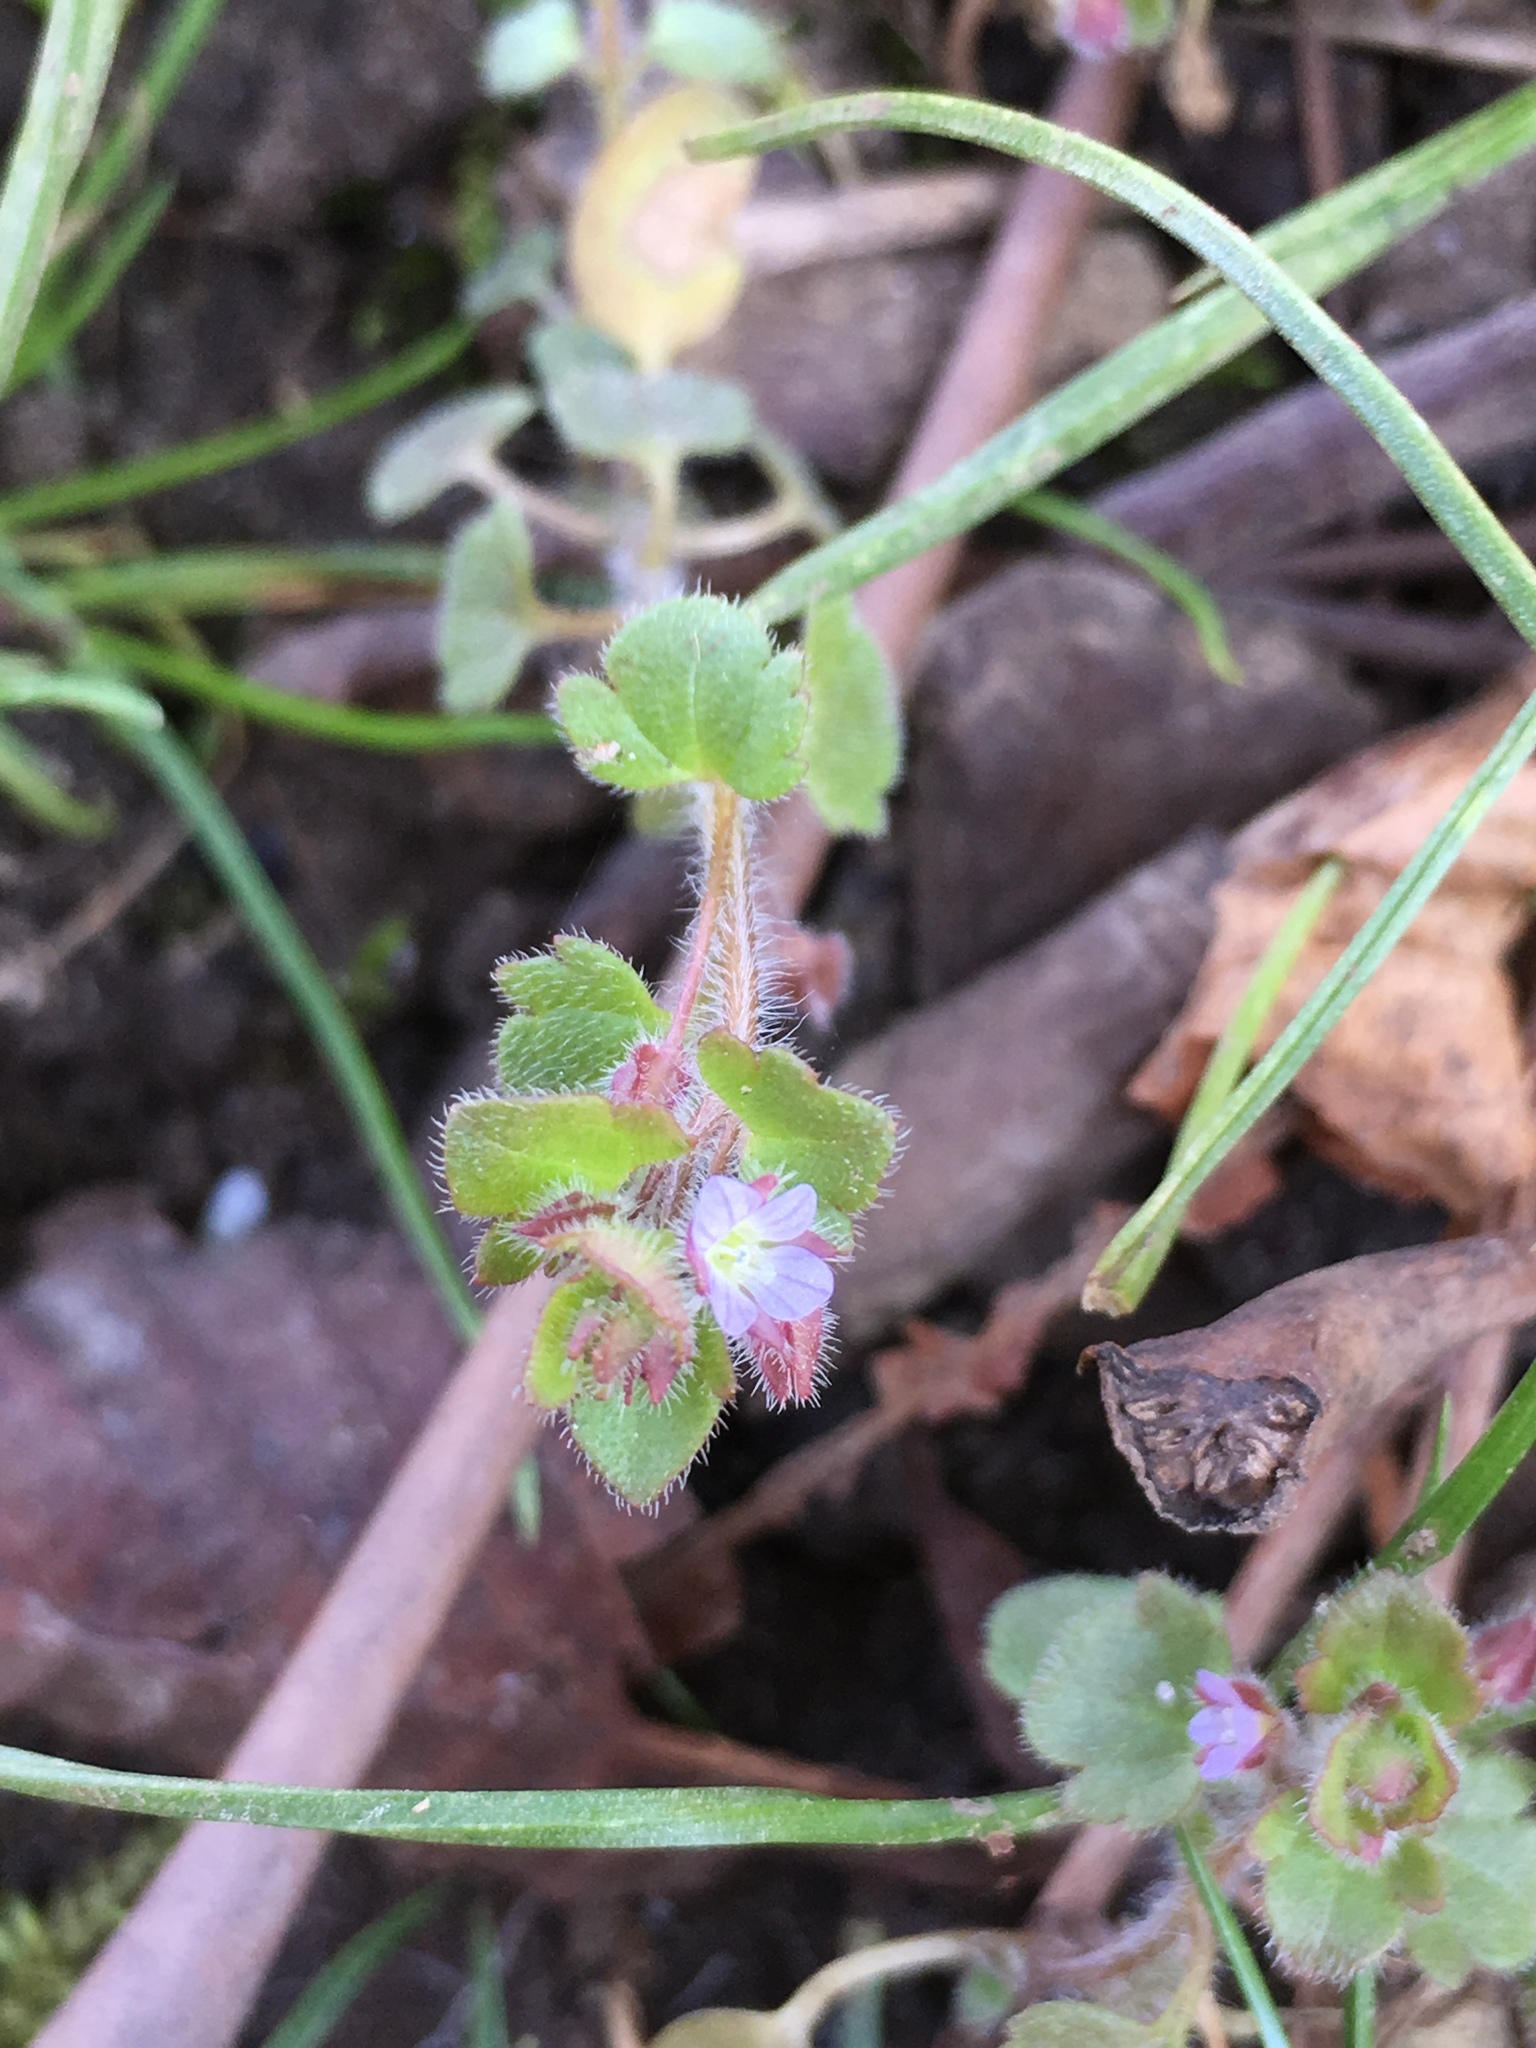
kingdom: Plantae
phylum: Tracheophyta
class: Magnoliopsida
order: Lamiales
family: Plantaginaceae
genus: Veronica
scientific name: Veronica hederifolia
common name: Ivy-leaved speedwell
